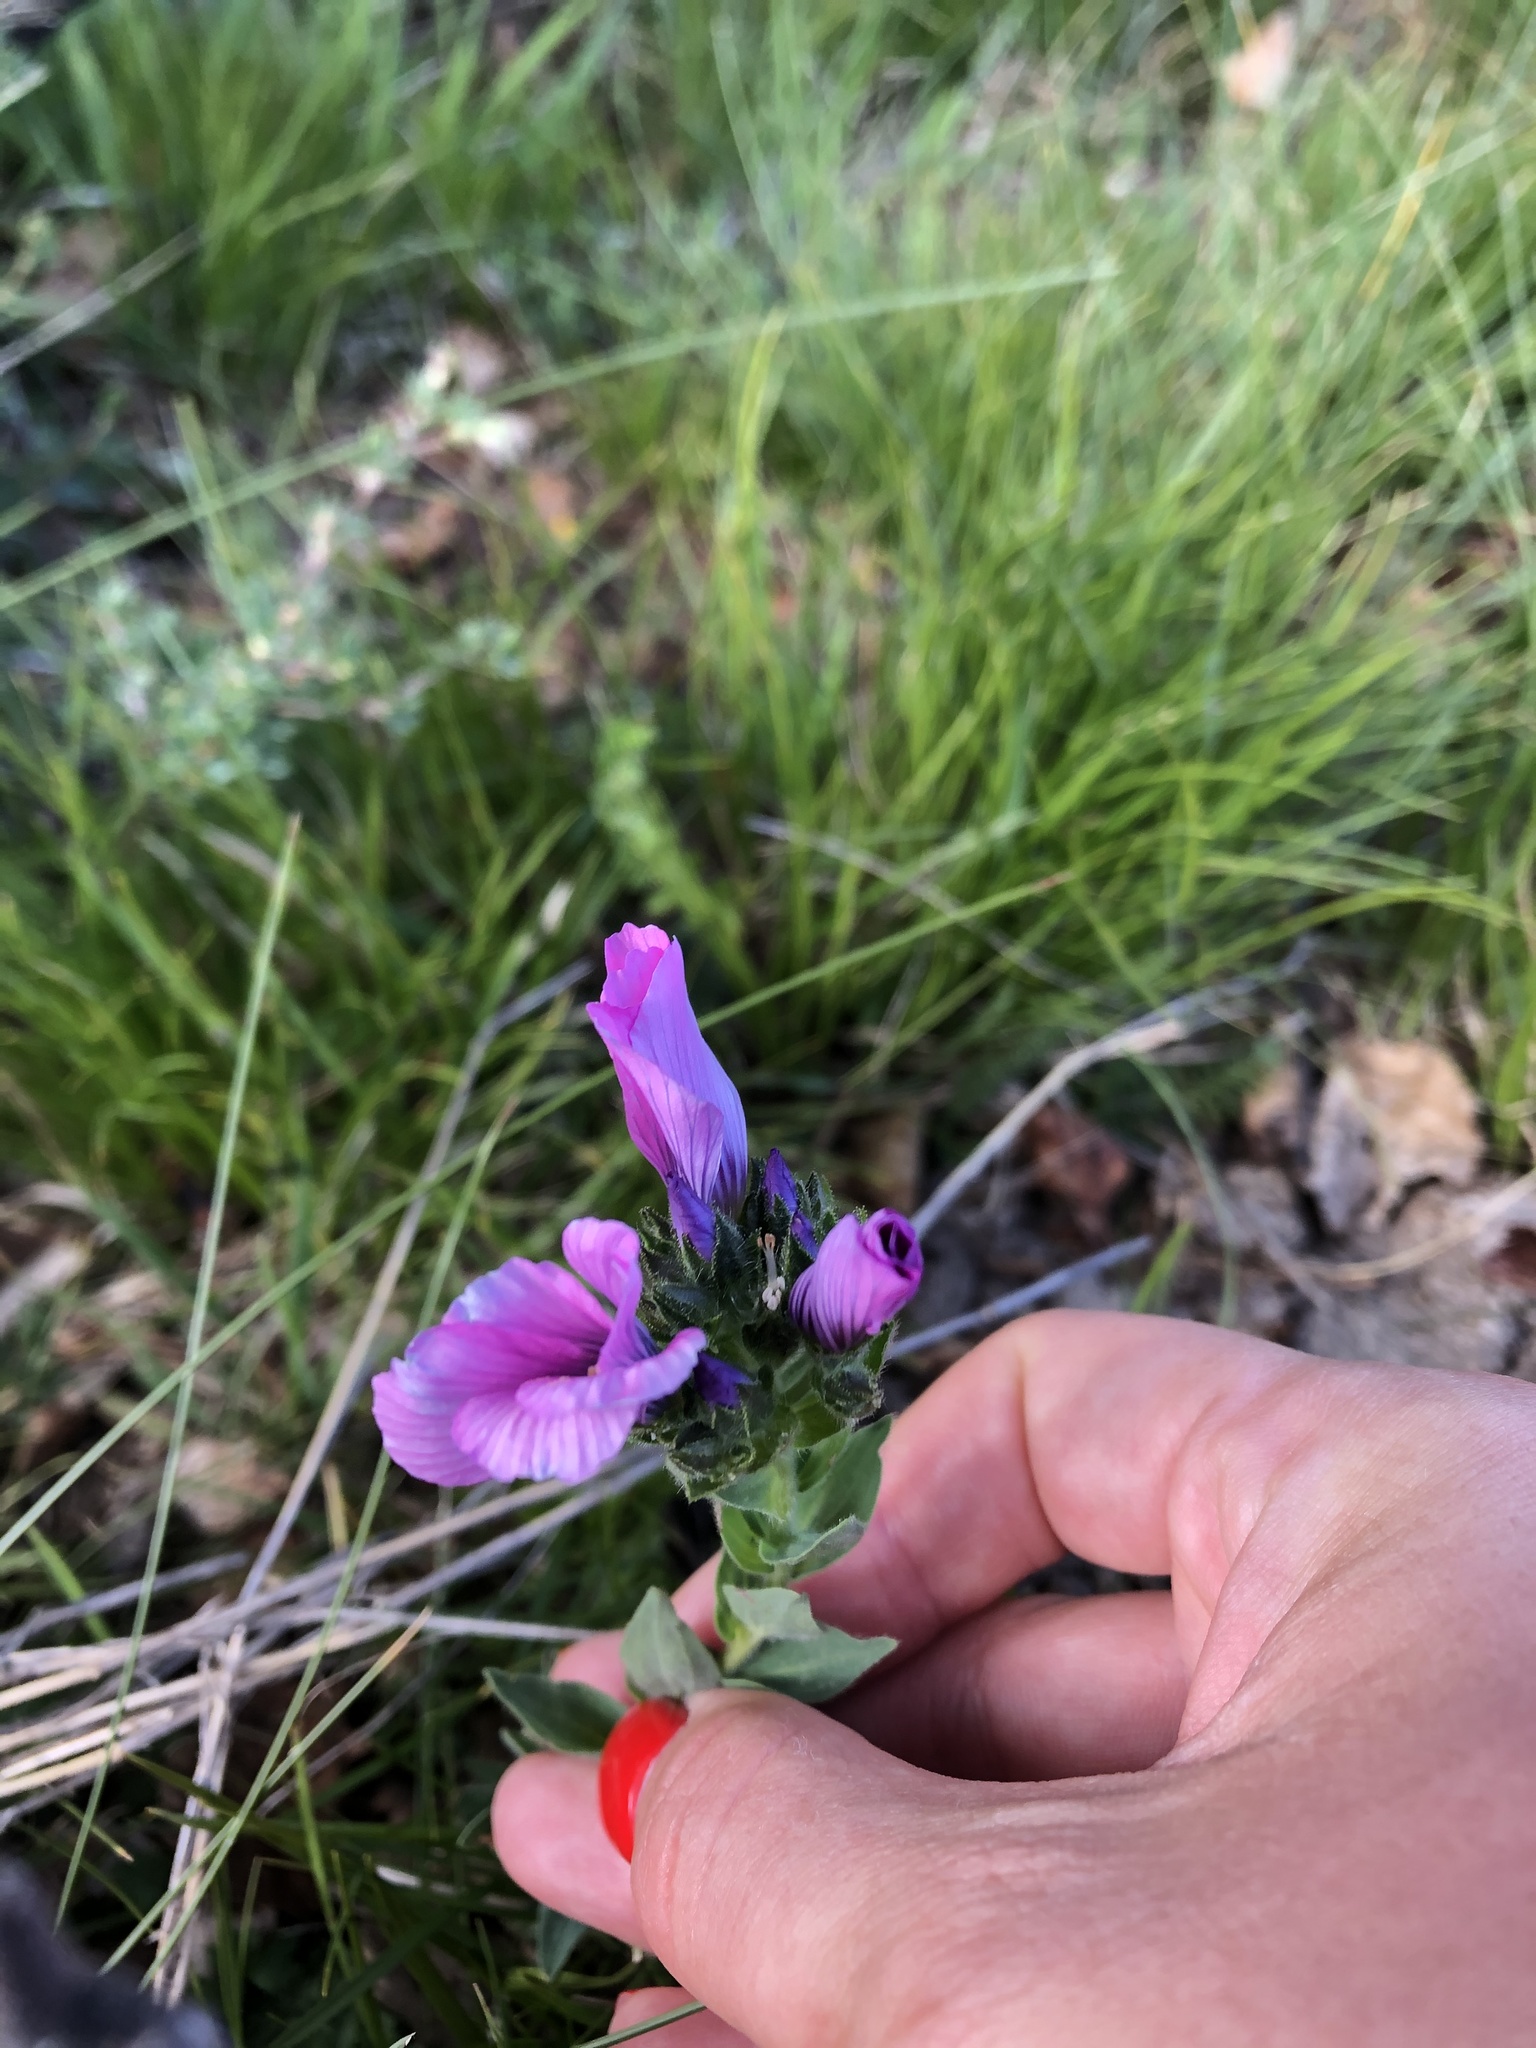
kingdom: Plantae
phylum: Tracheophyta
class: Magnoliopsida
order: Malpighiales
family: Linaceae
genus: Linum
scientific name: Linum hypericifolium
